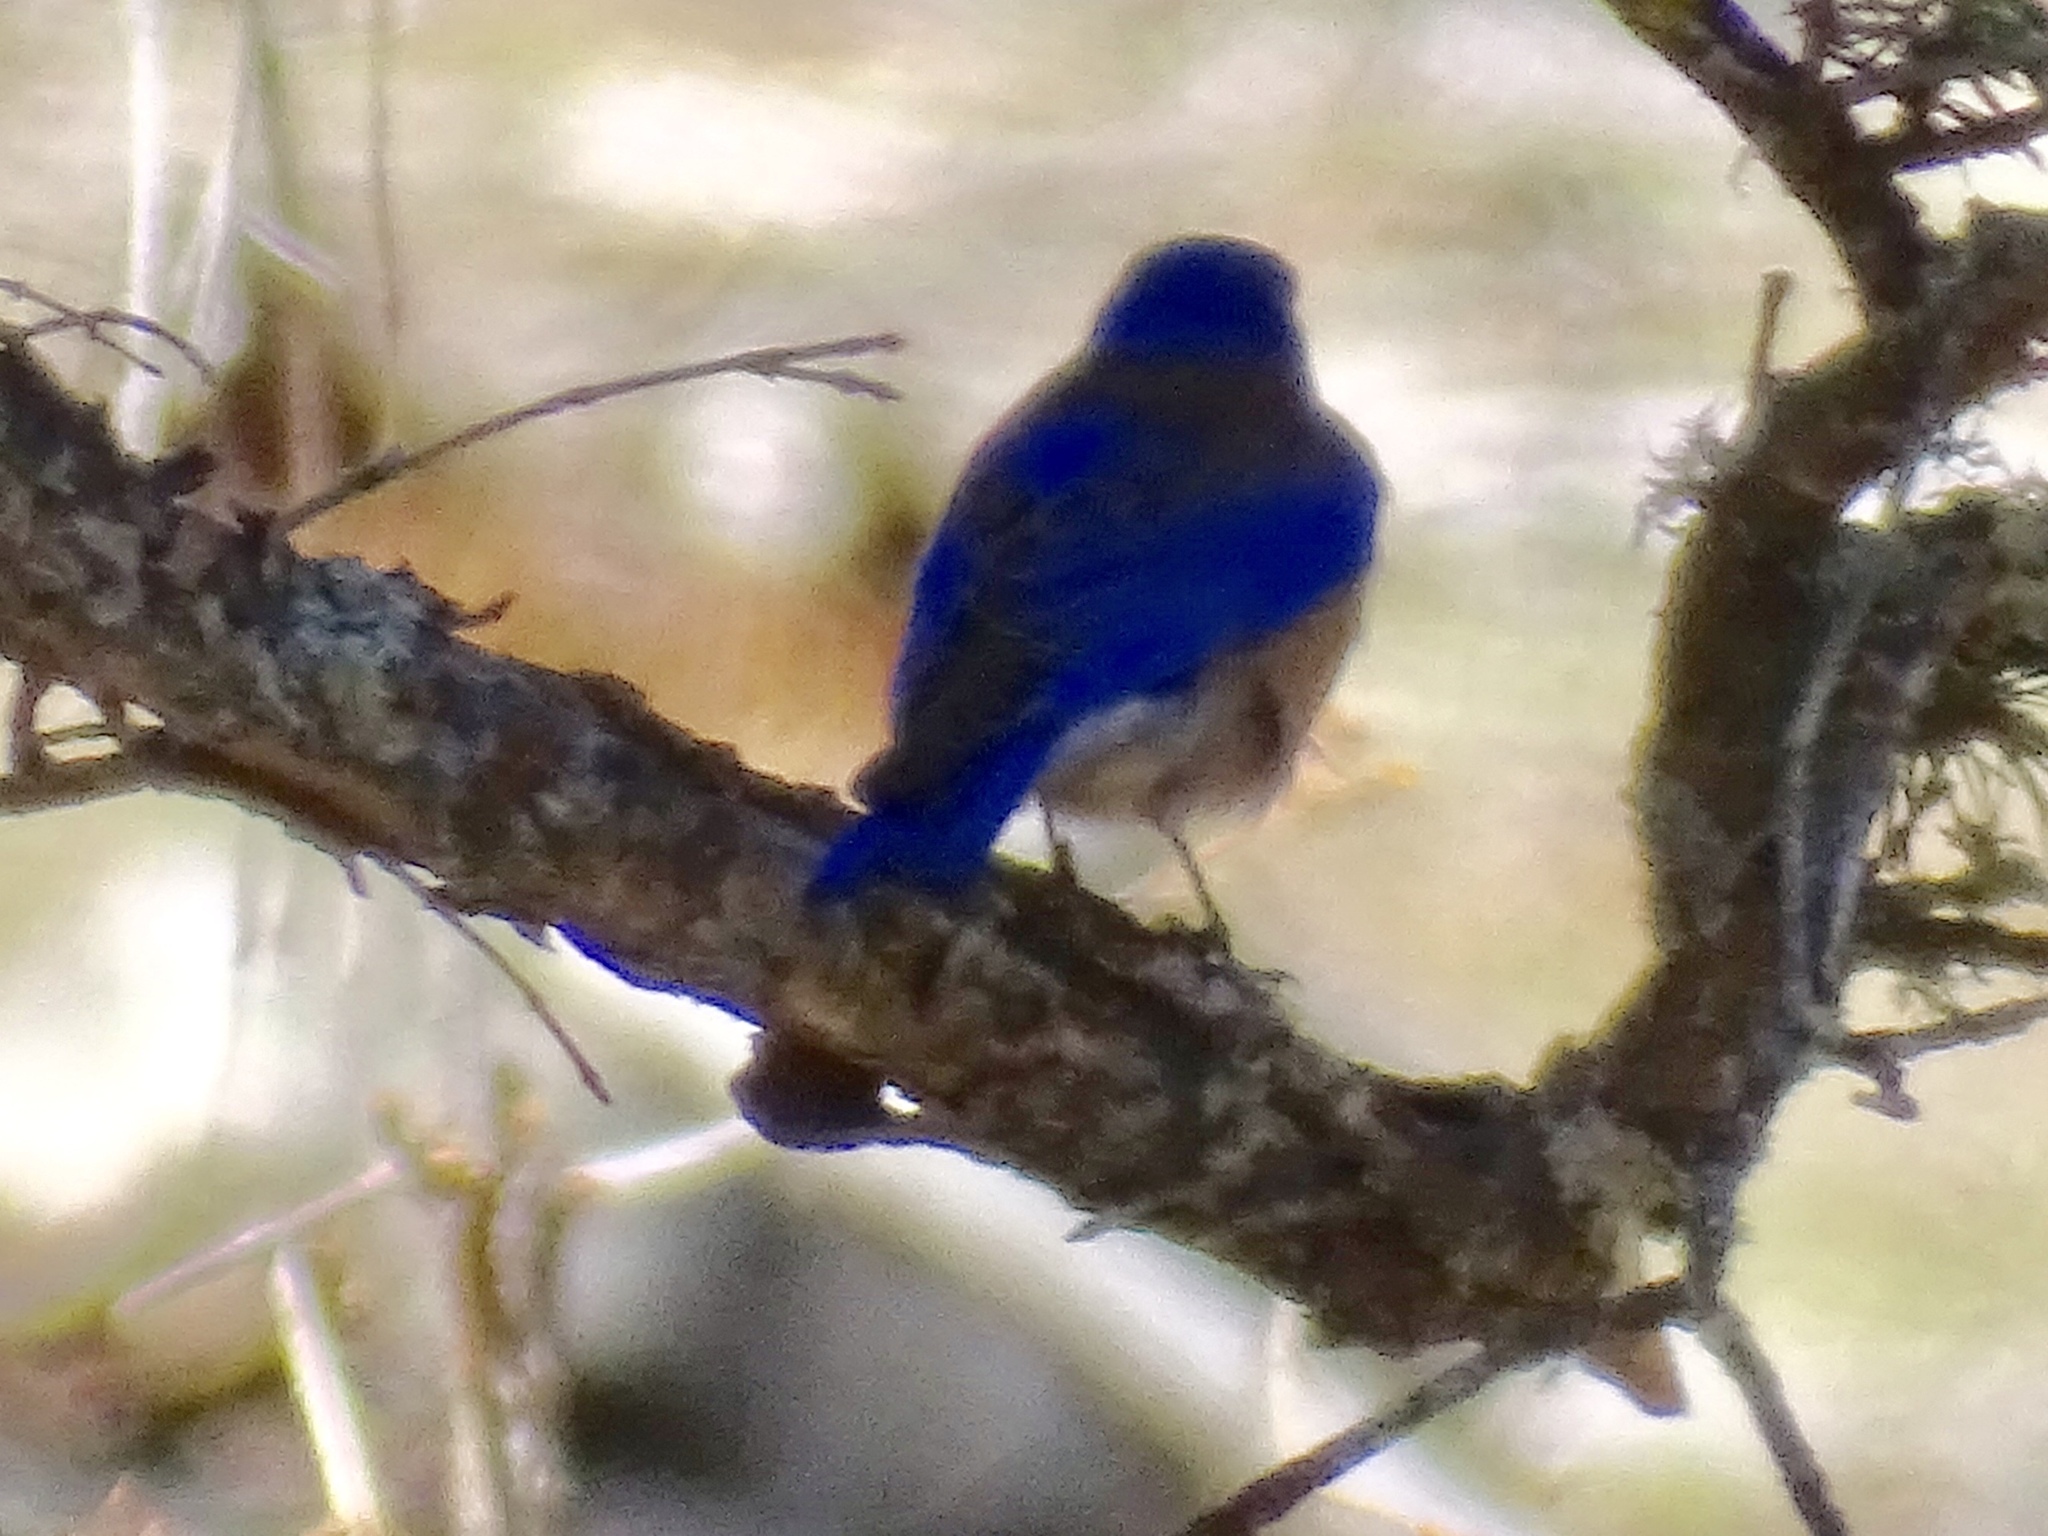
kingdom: Animalia
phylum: Chordata
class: Aves
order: Passeriformes
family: Turdidae
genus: Sialia
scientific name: Sialia sialis
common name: Eastern bluebird
